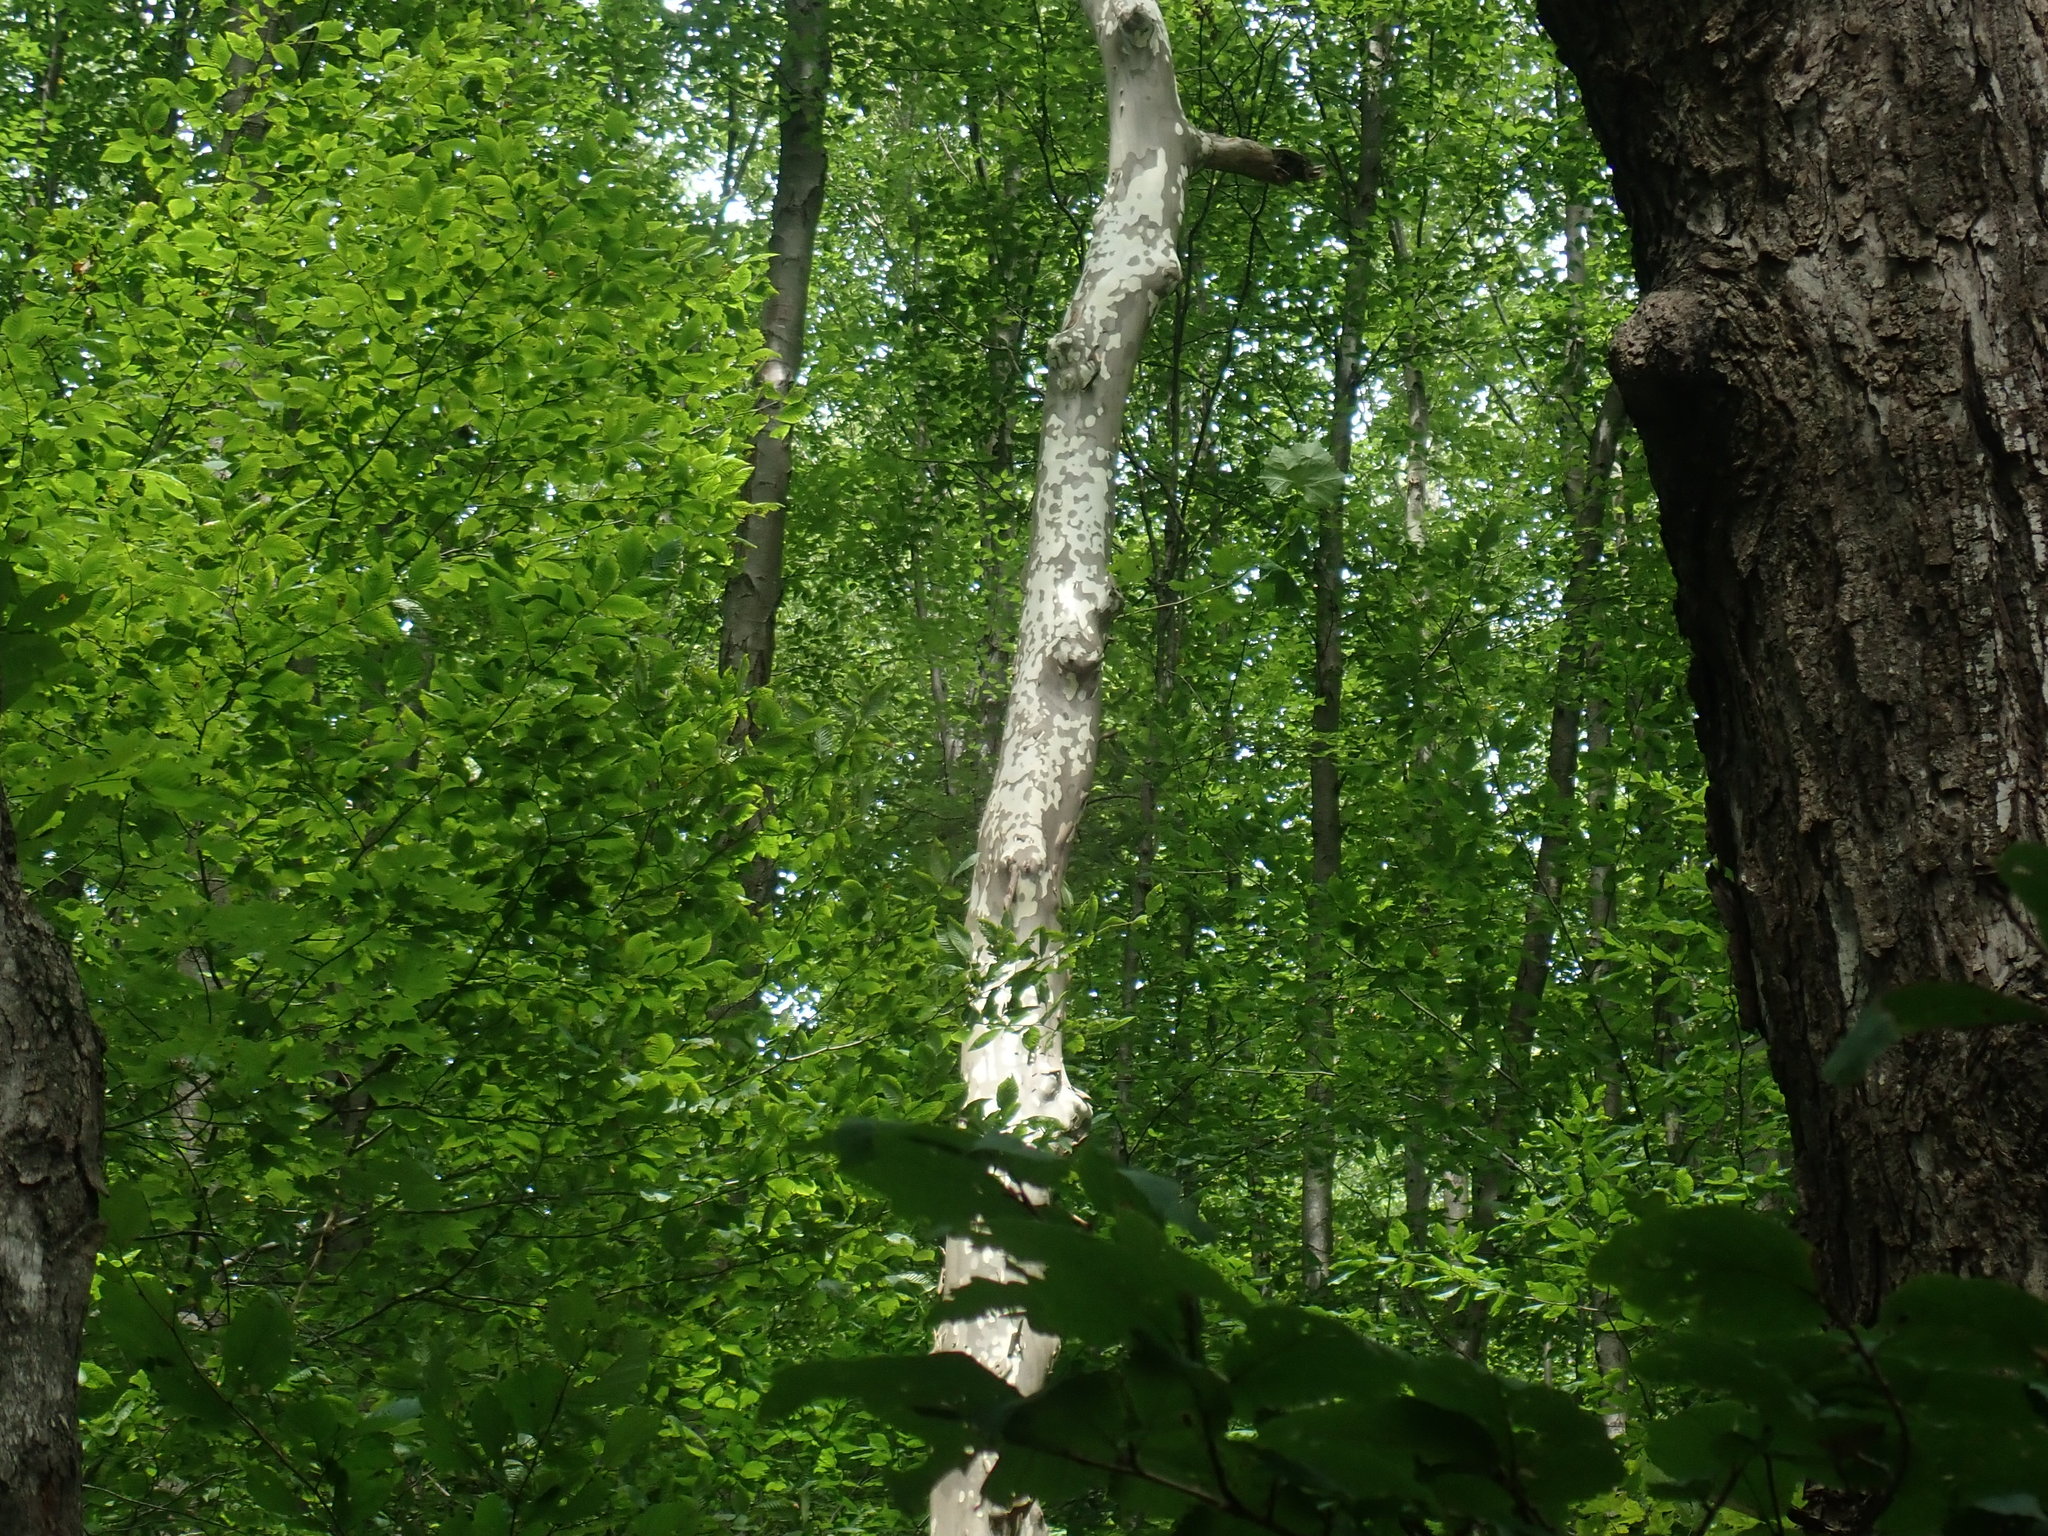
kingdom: Plantae
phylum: Tracheophyta
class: Magnoliopsida
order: Proteales
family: Platanaceae
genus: Platanus
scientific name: Platanus occidentalis
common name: American sycamore
